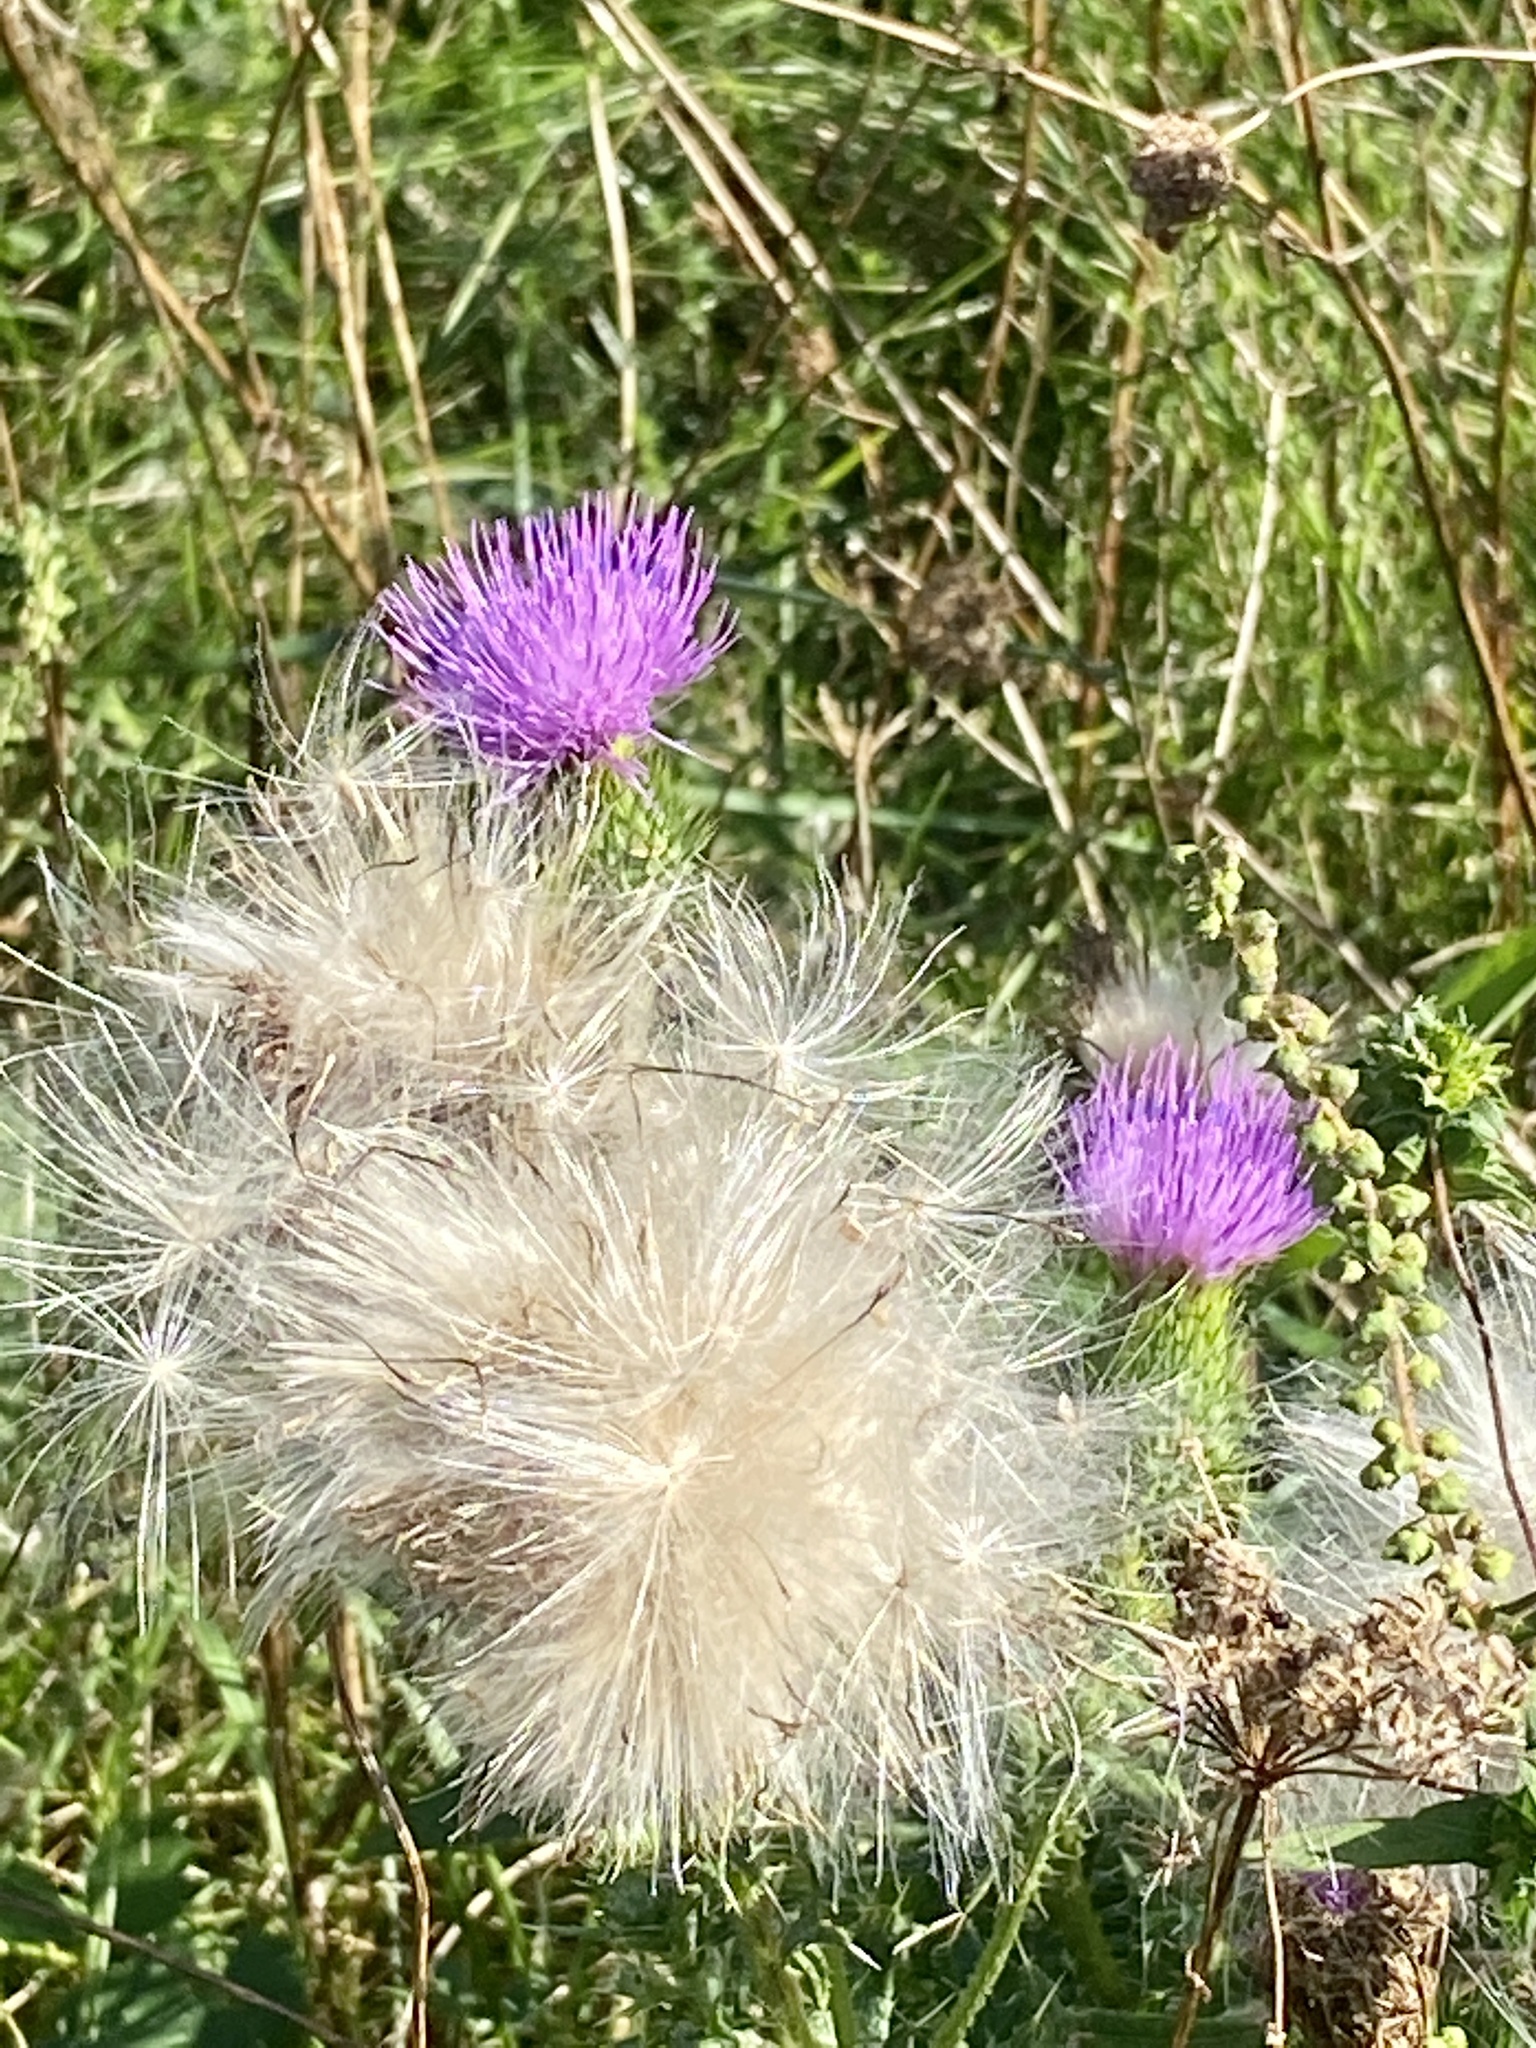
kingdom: Plantae
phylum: Tracheophyta
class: Magnoliopsida
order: Asterales
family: Asteraceae
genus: Cirsium
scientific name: Cirsium vulgare
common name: Bull thistle
